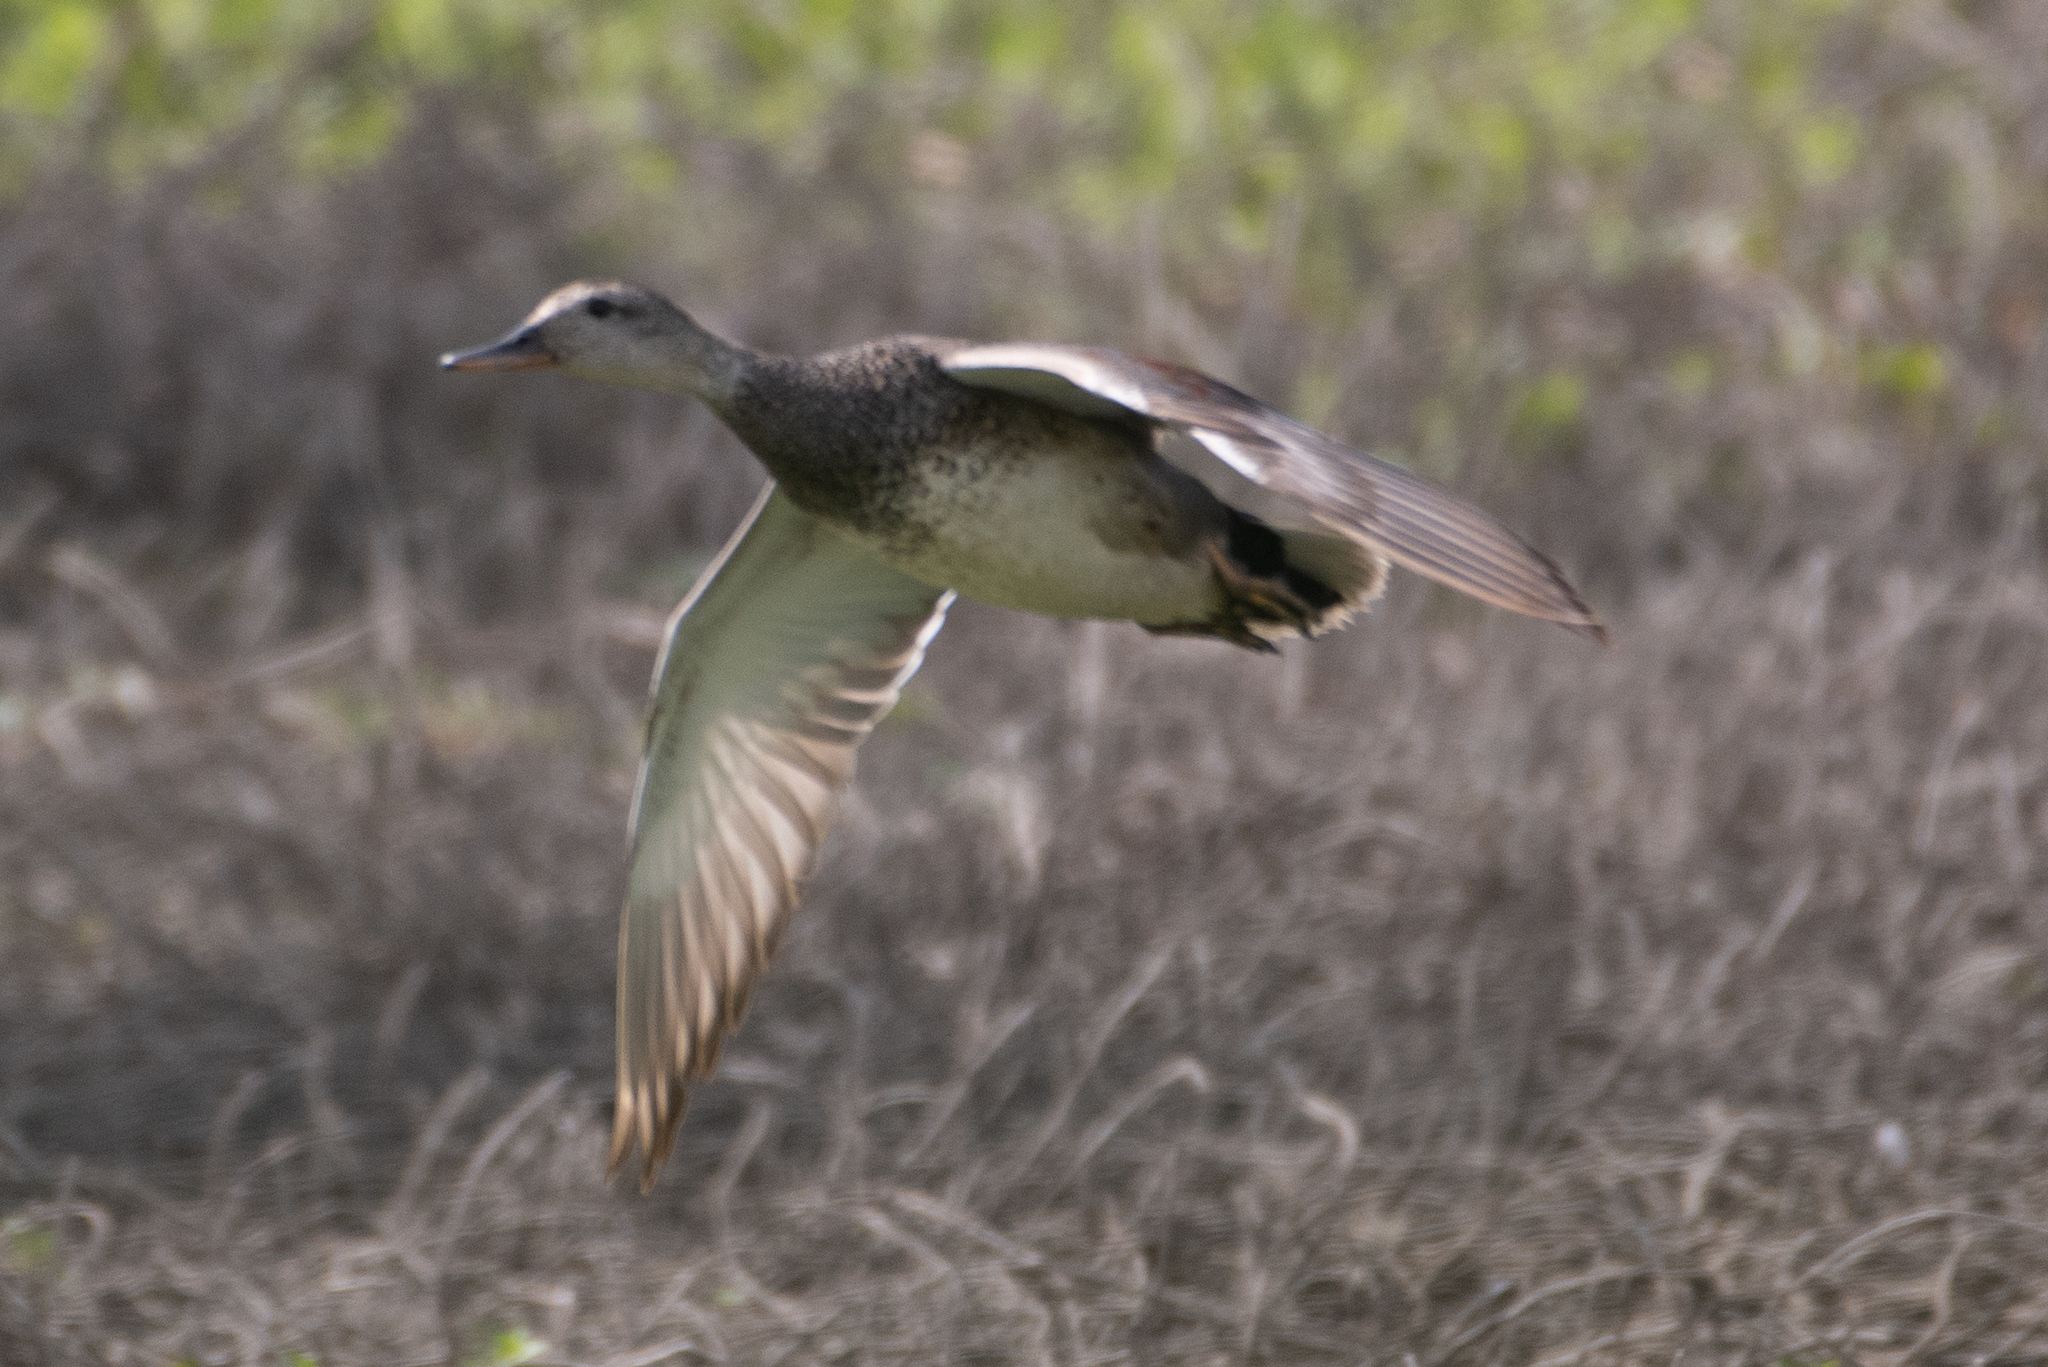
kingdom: Animalia
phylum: Chordata
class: Aves
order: Anseriformes
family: Anatidae
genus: Mareca
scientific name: Mareca strepera
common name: Gadwall
